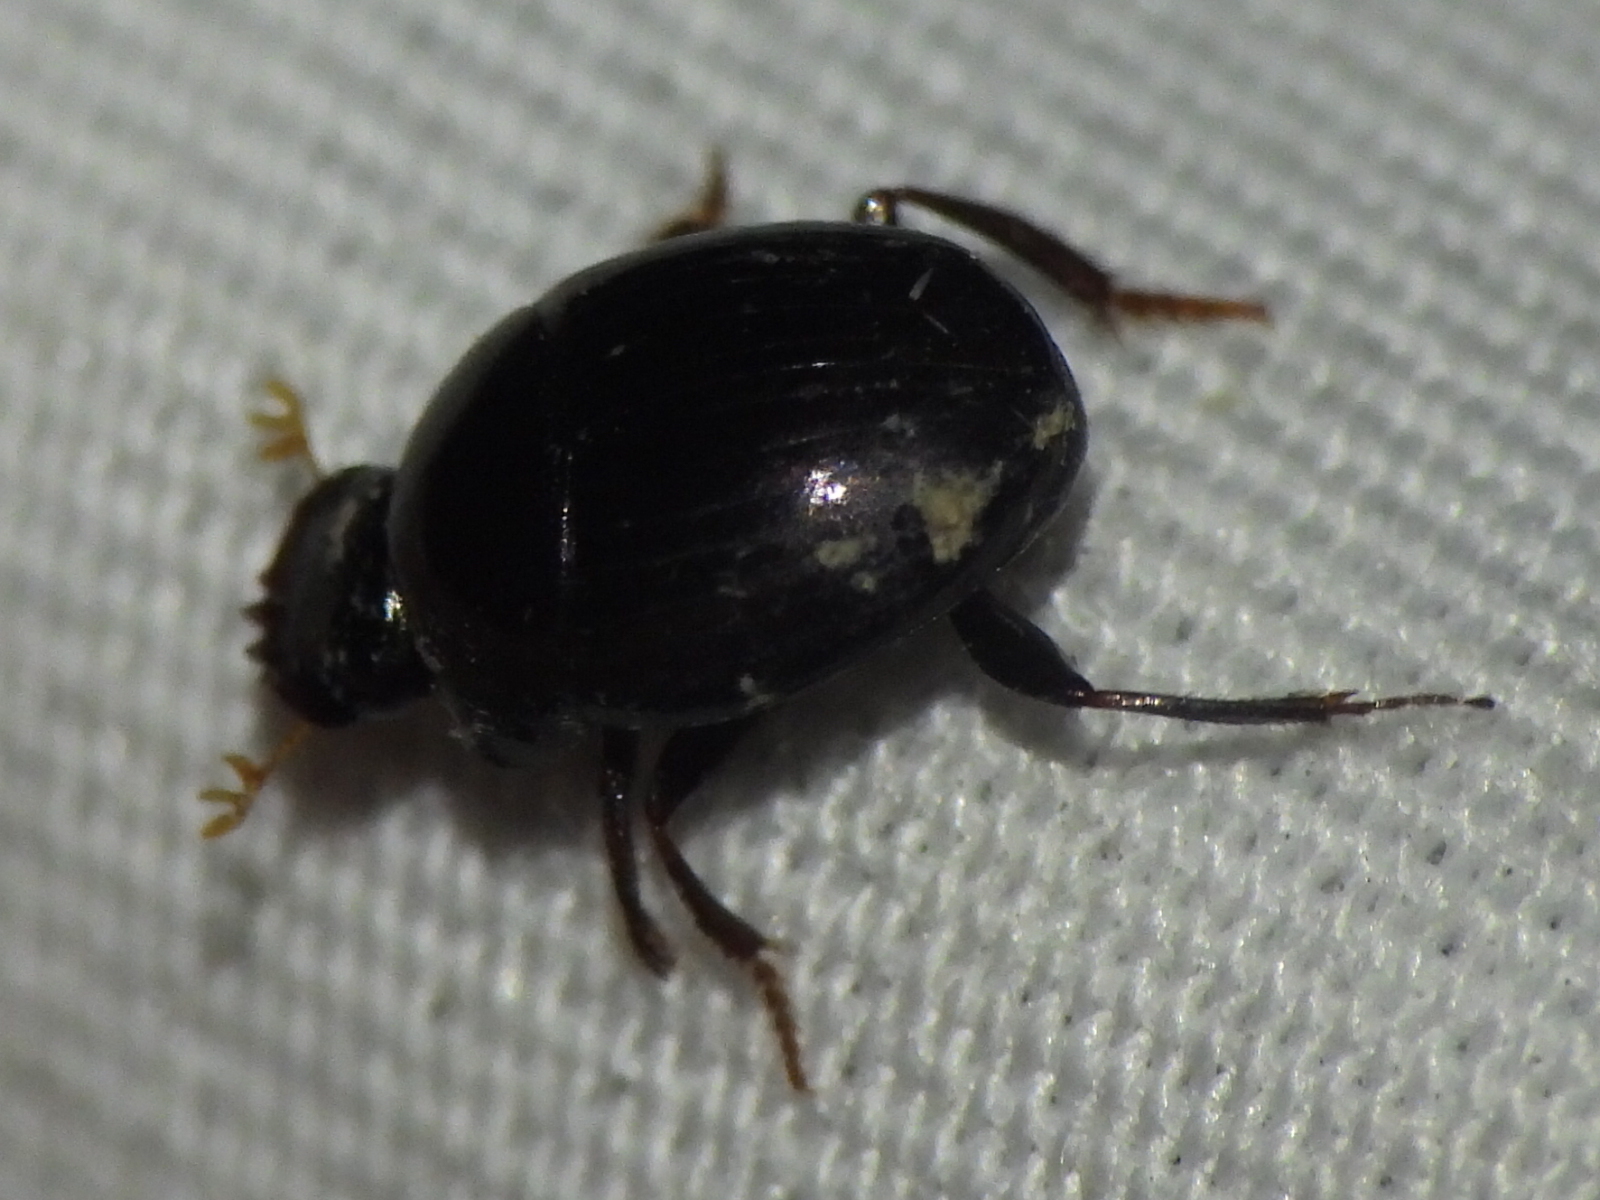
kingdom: Animalia
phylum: Arthropoda
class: Insecta
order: Coleoptera
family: Scarabaeidae
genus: Pseudocanthon
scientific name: Pseudocanthon perplexus
